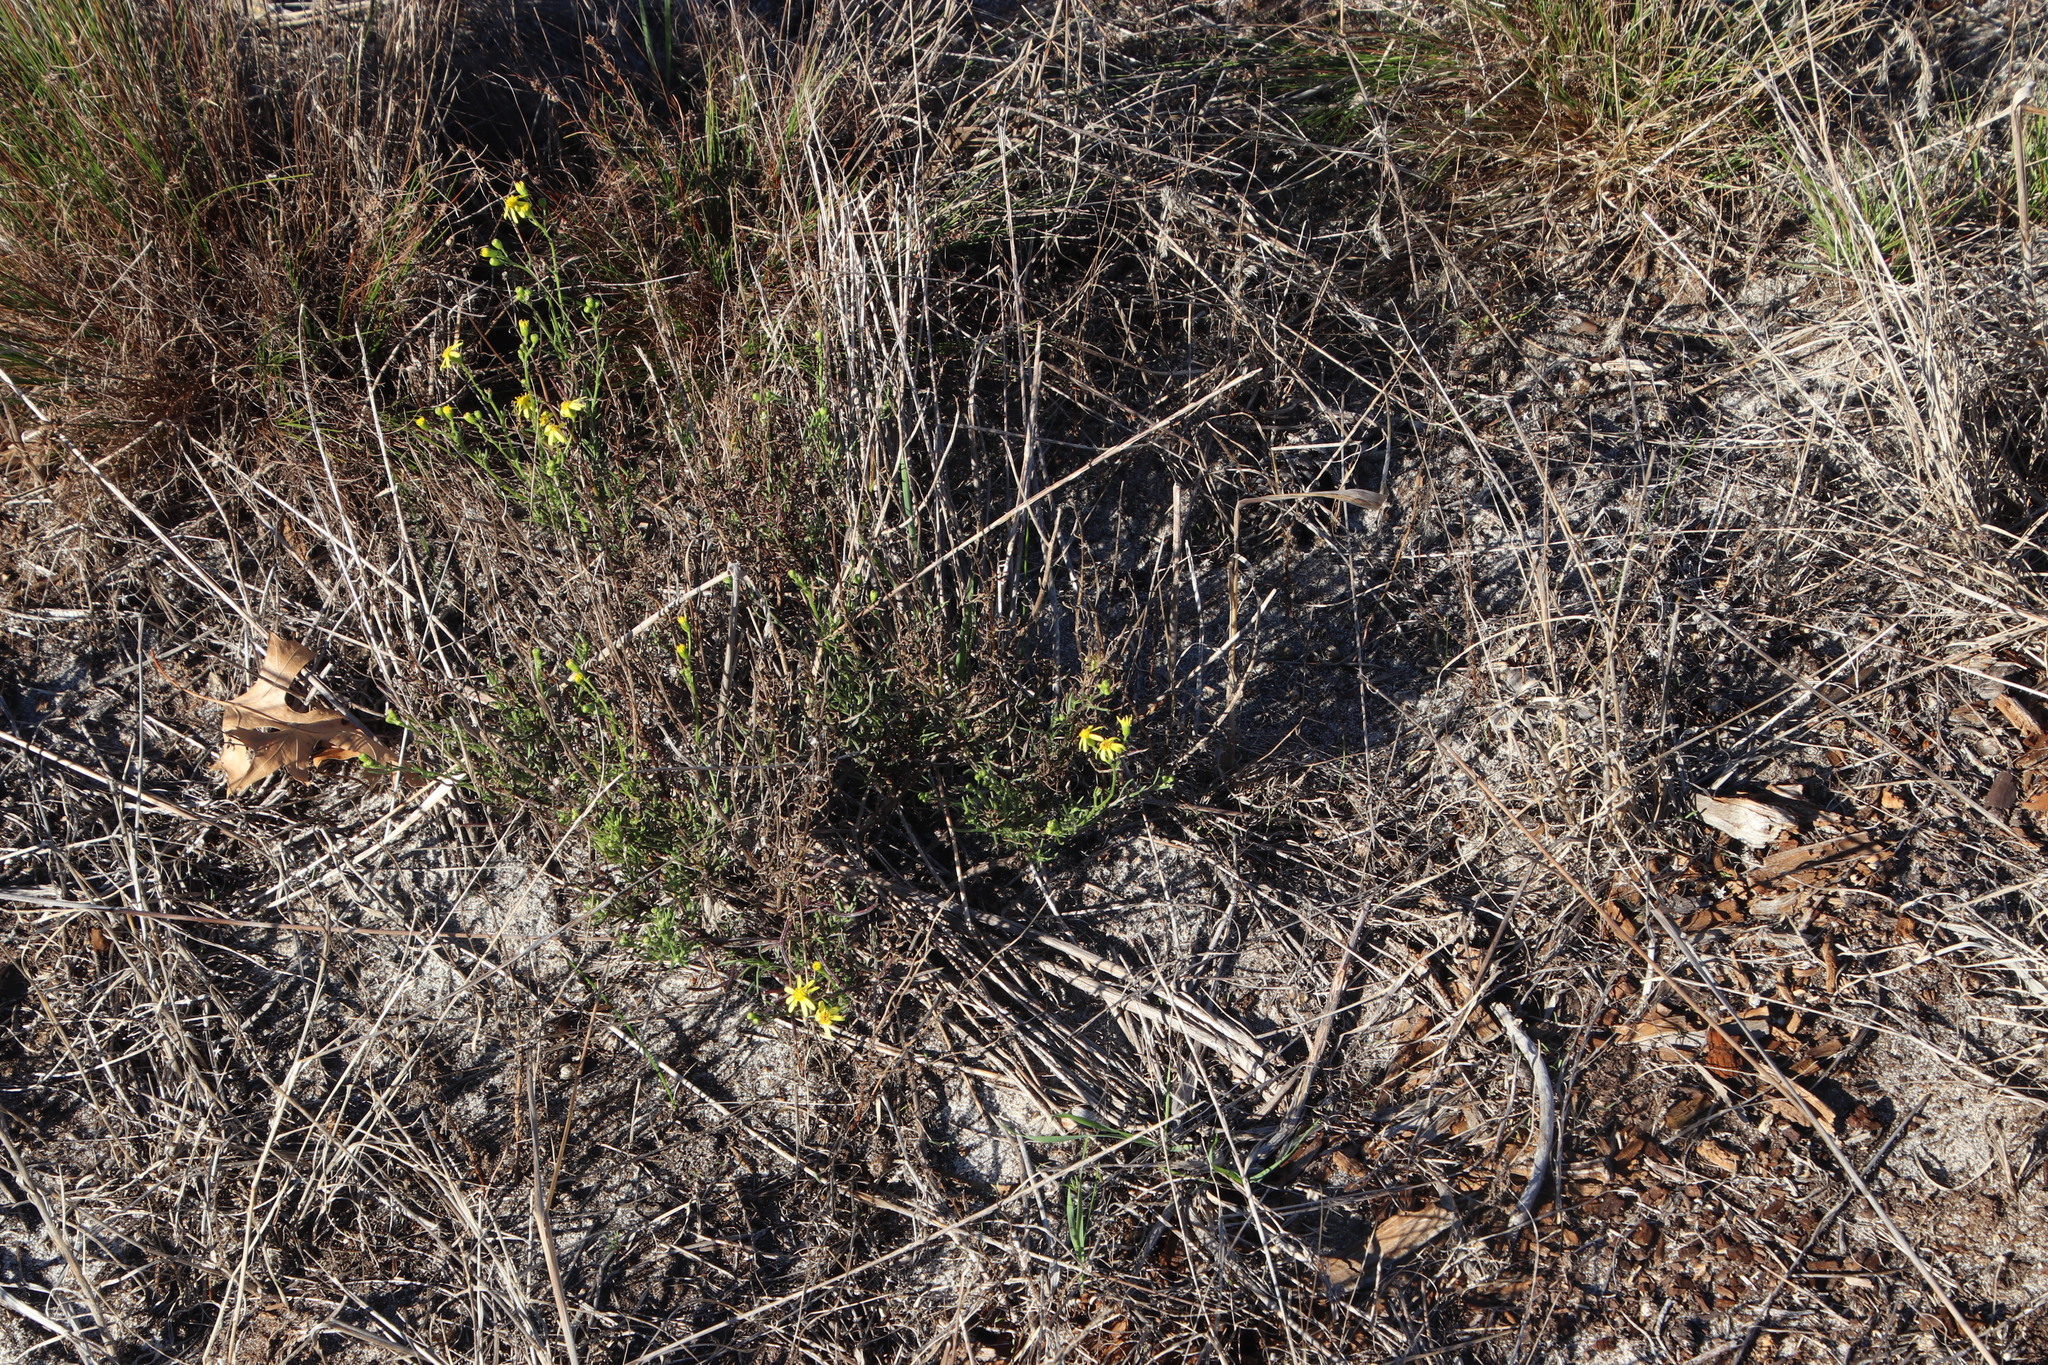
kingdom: Plantae
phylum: Tracheophyta
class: Magnoliopsida
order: Asterales
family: Asteraceae
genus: Senecio
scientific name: Senecio burchellii
